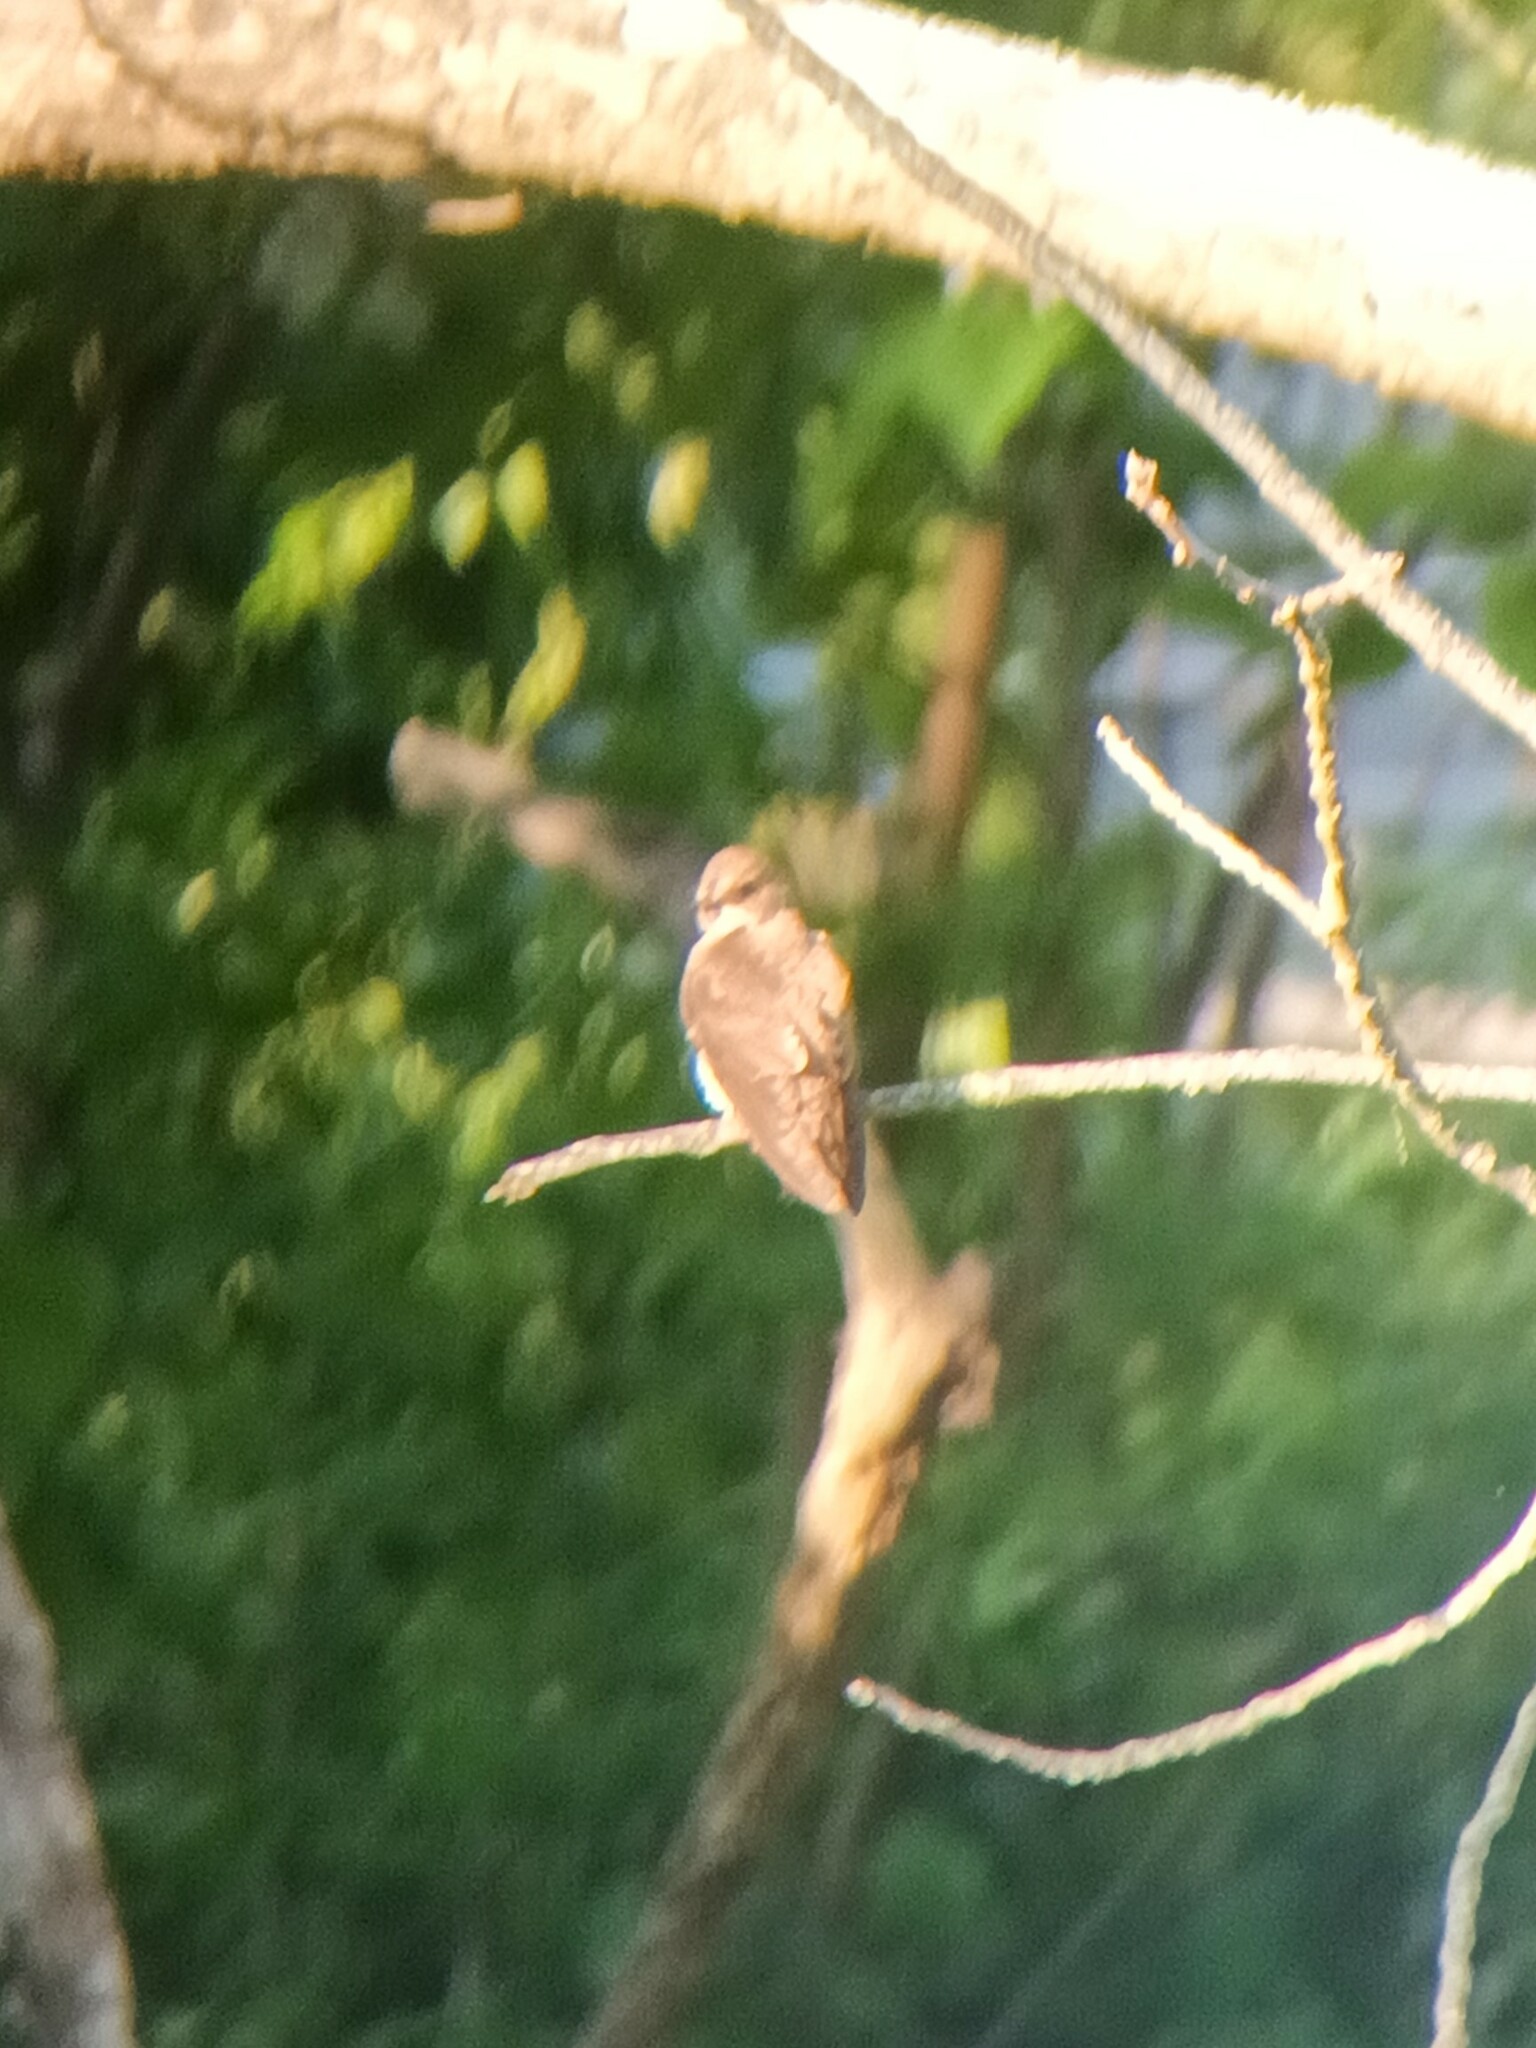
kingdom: Animalia
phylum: Chordata
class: Aves
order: Passeriformes
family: Hirundinidae
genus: Stelgidopteryx
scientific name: Stelgidopteryx serripennis
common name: Northern rough-winged swallow
